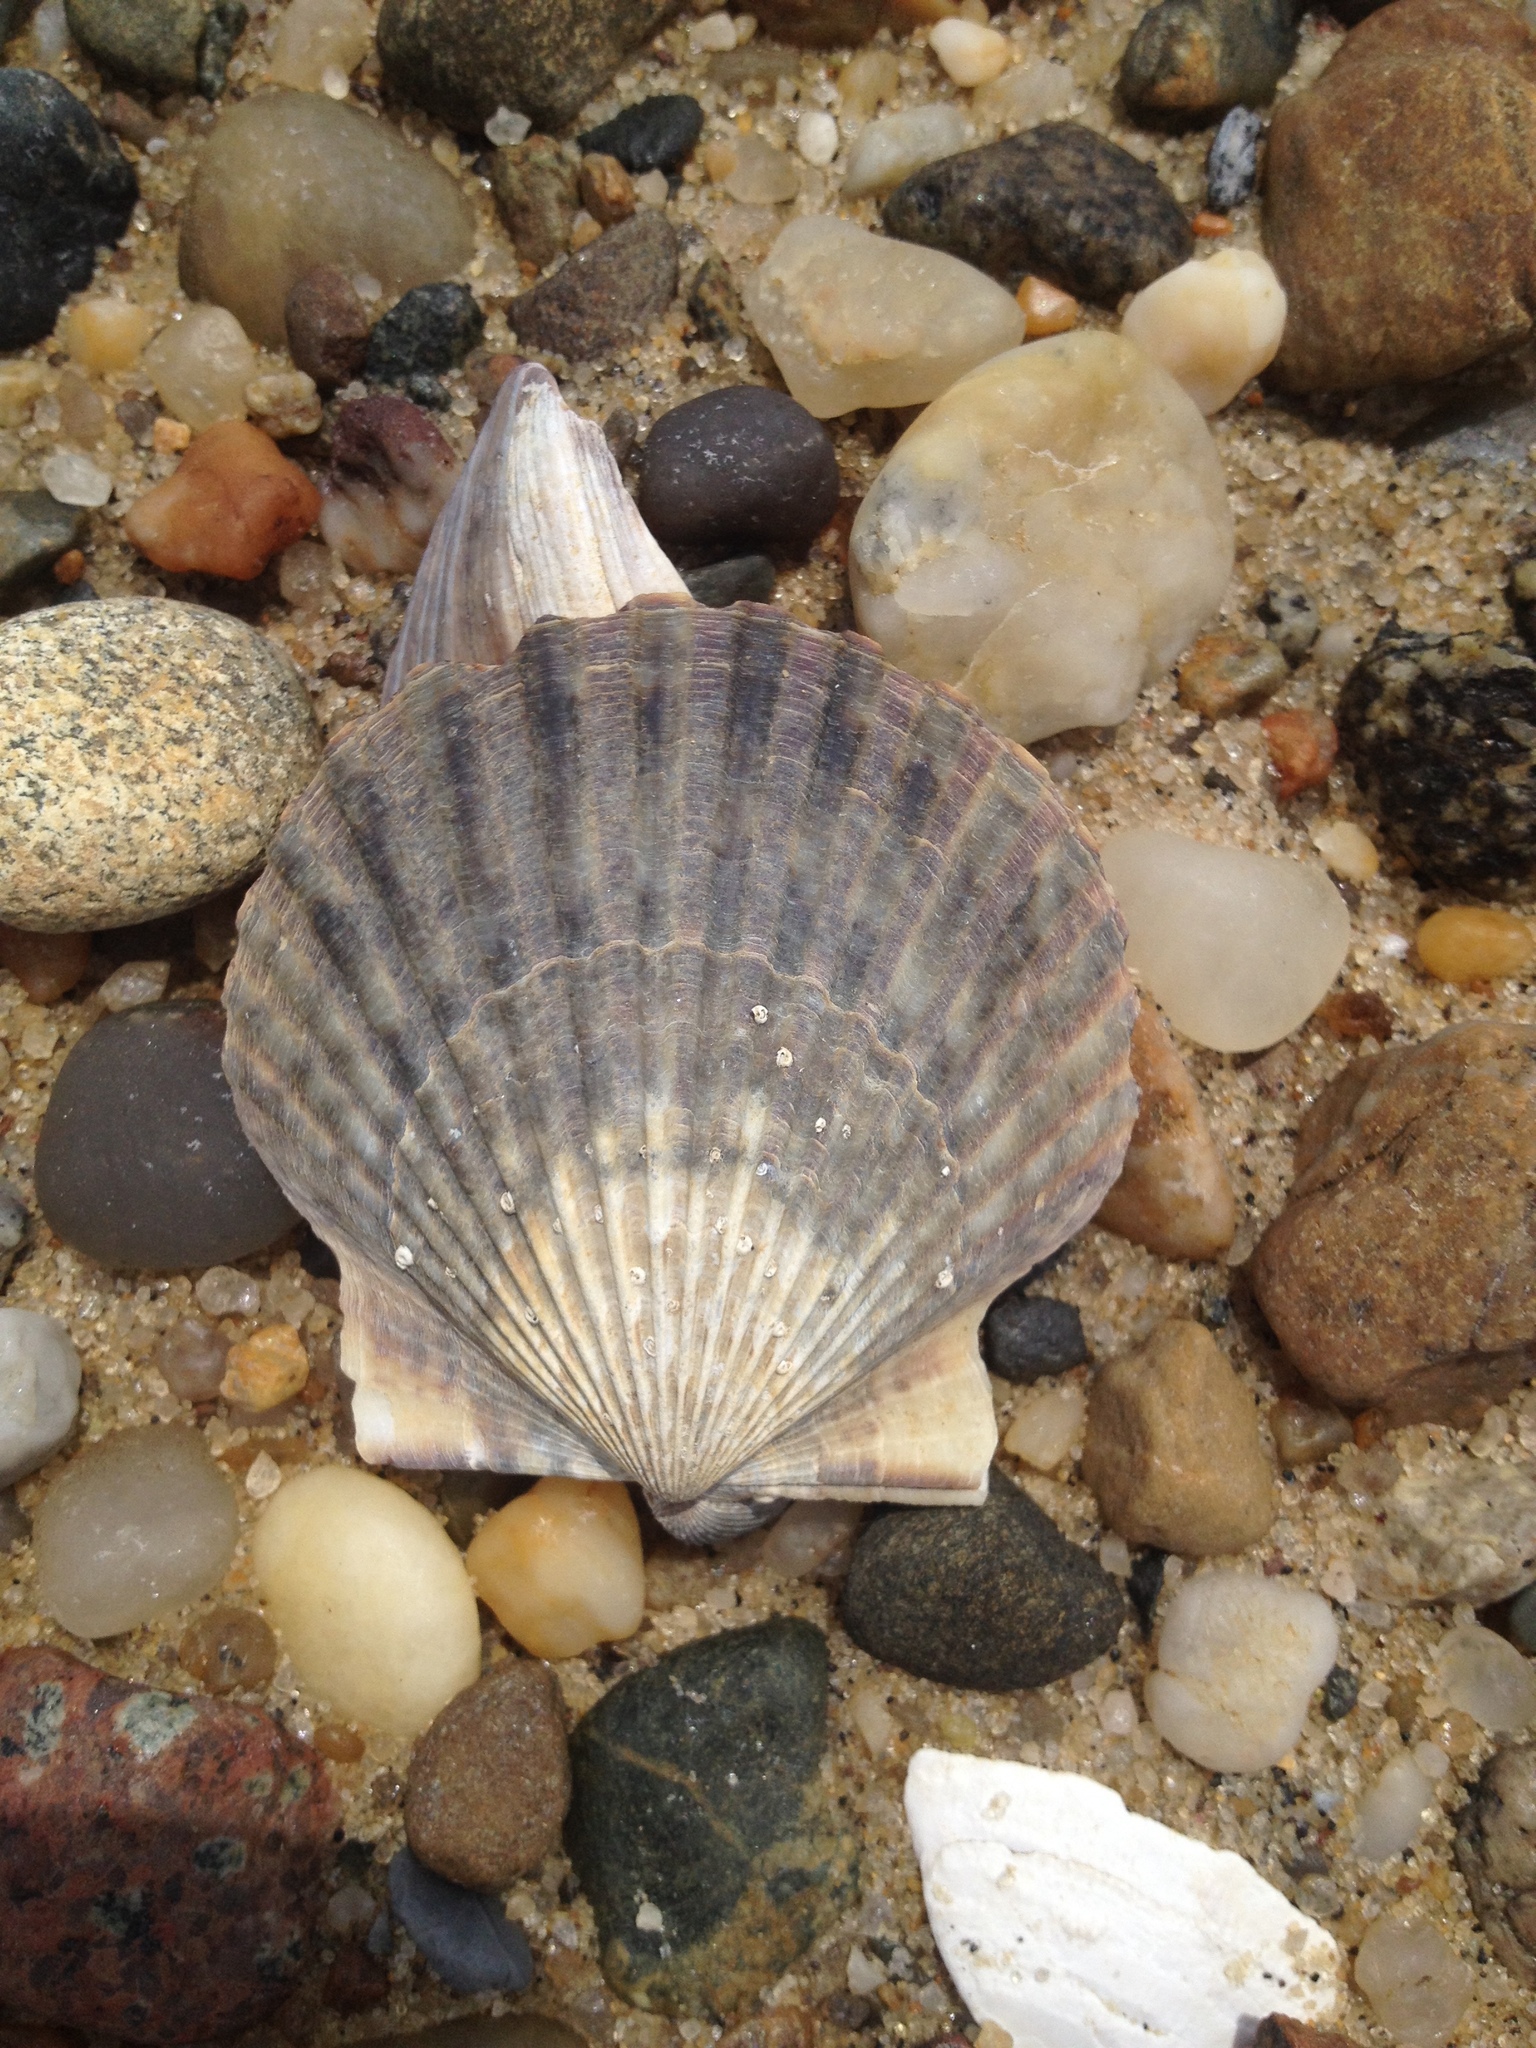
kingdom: Animalia
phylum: Mollusca
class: Bivalvia
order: Pectinida
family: Pectinidae
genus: Argopecten
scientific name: Argopecten irradians
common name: Atlantic bay scallop
